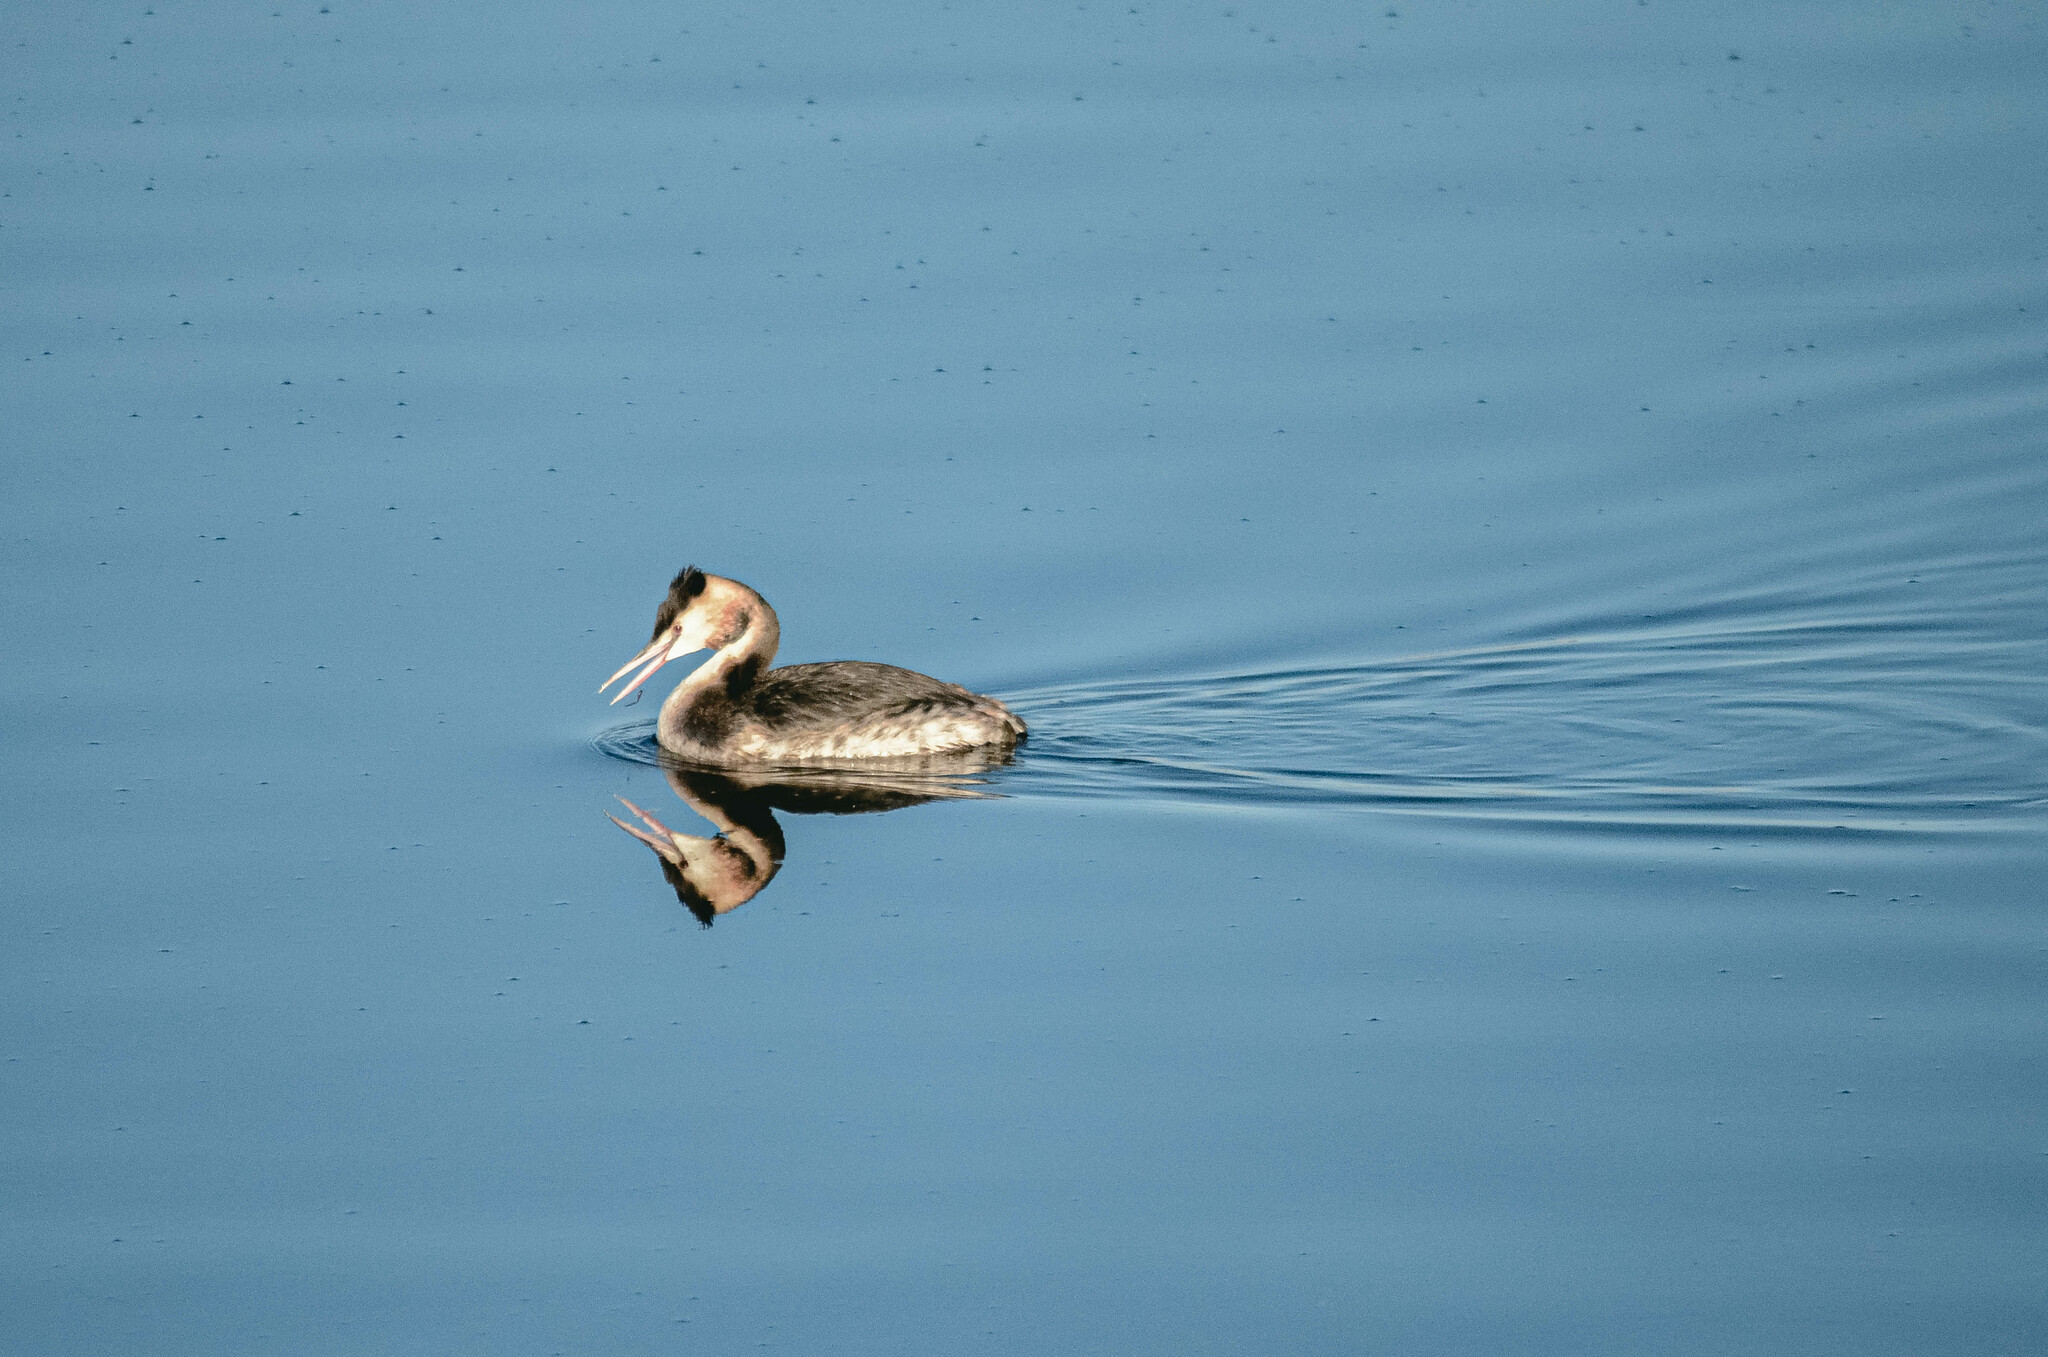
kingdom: Animalia
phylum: Chordata
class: Aves
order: Podicipediformes
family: Podicipedidae
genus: Podiceps
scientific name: Podiceps cristatus
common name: Great crested grebe
